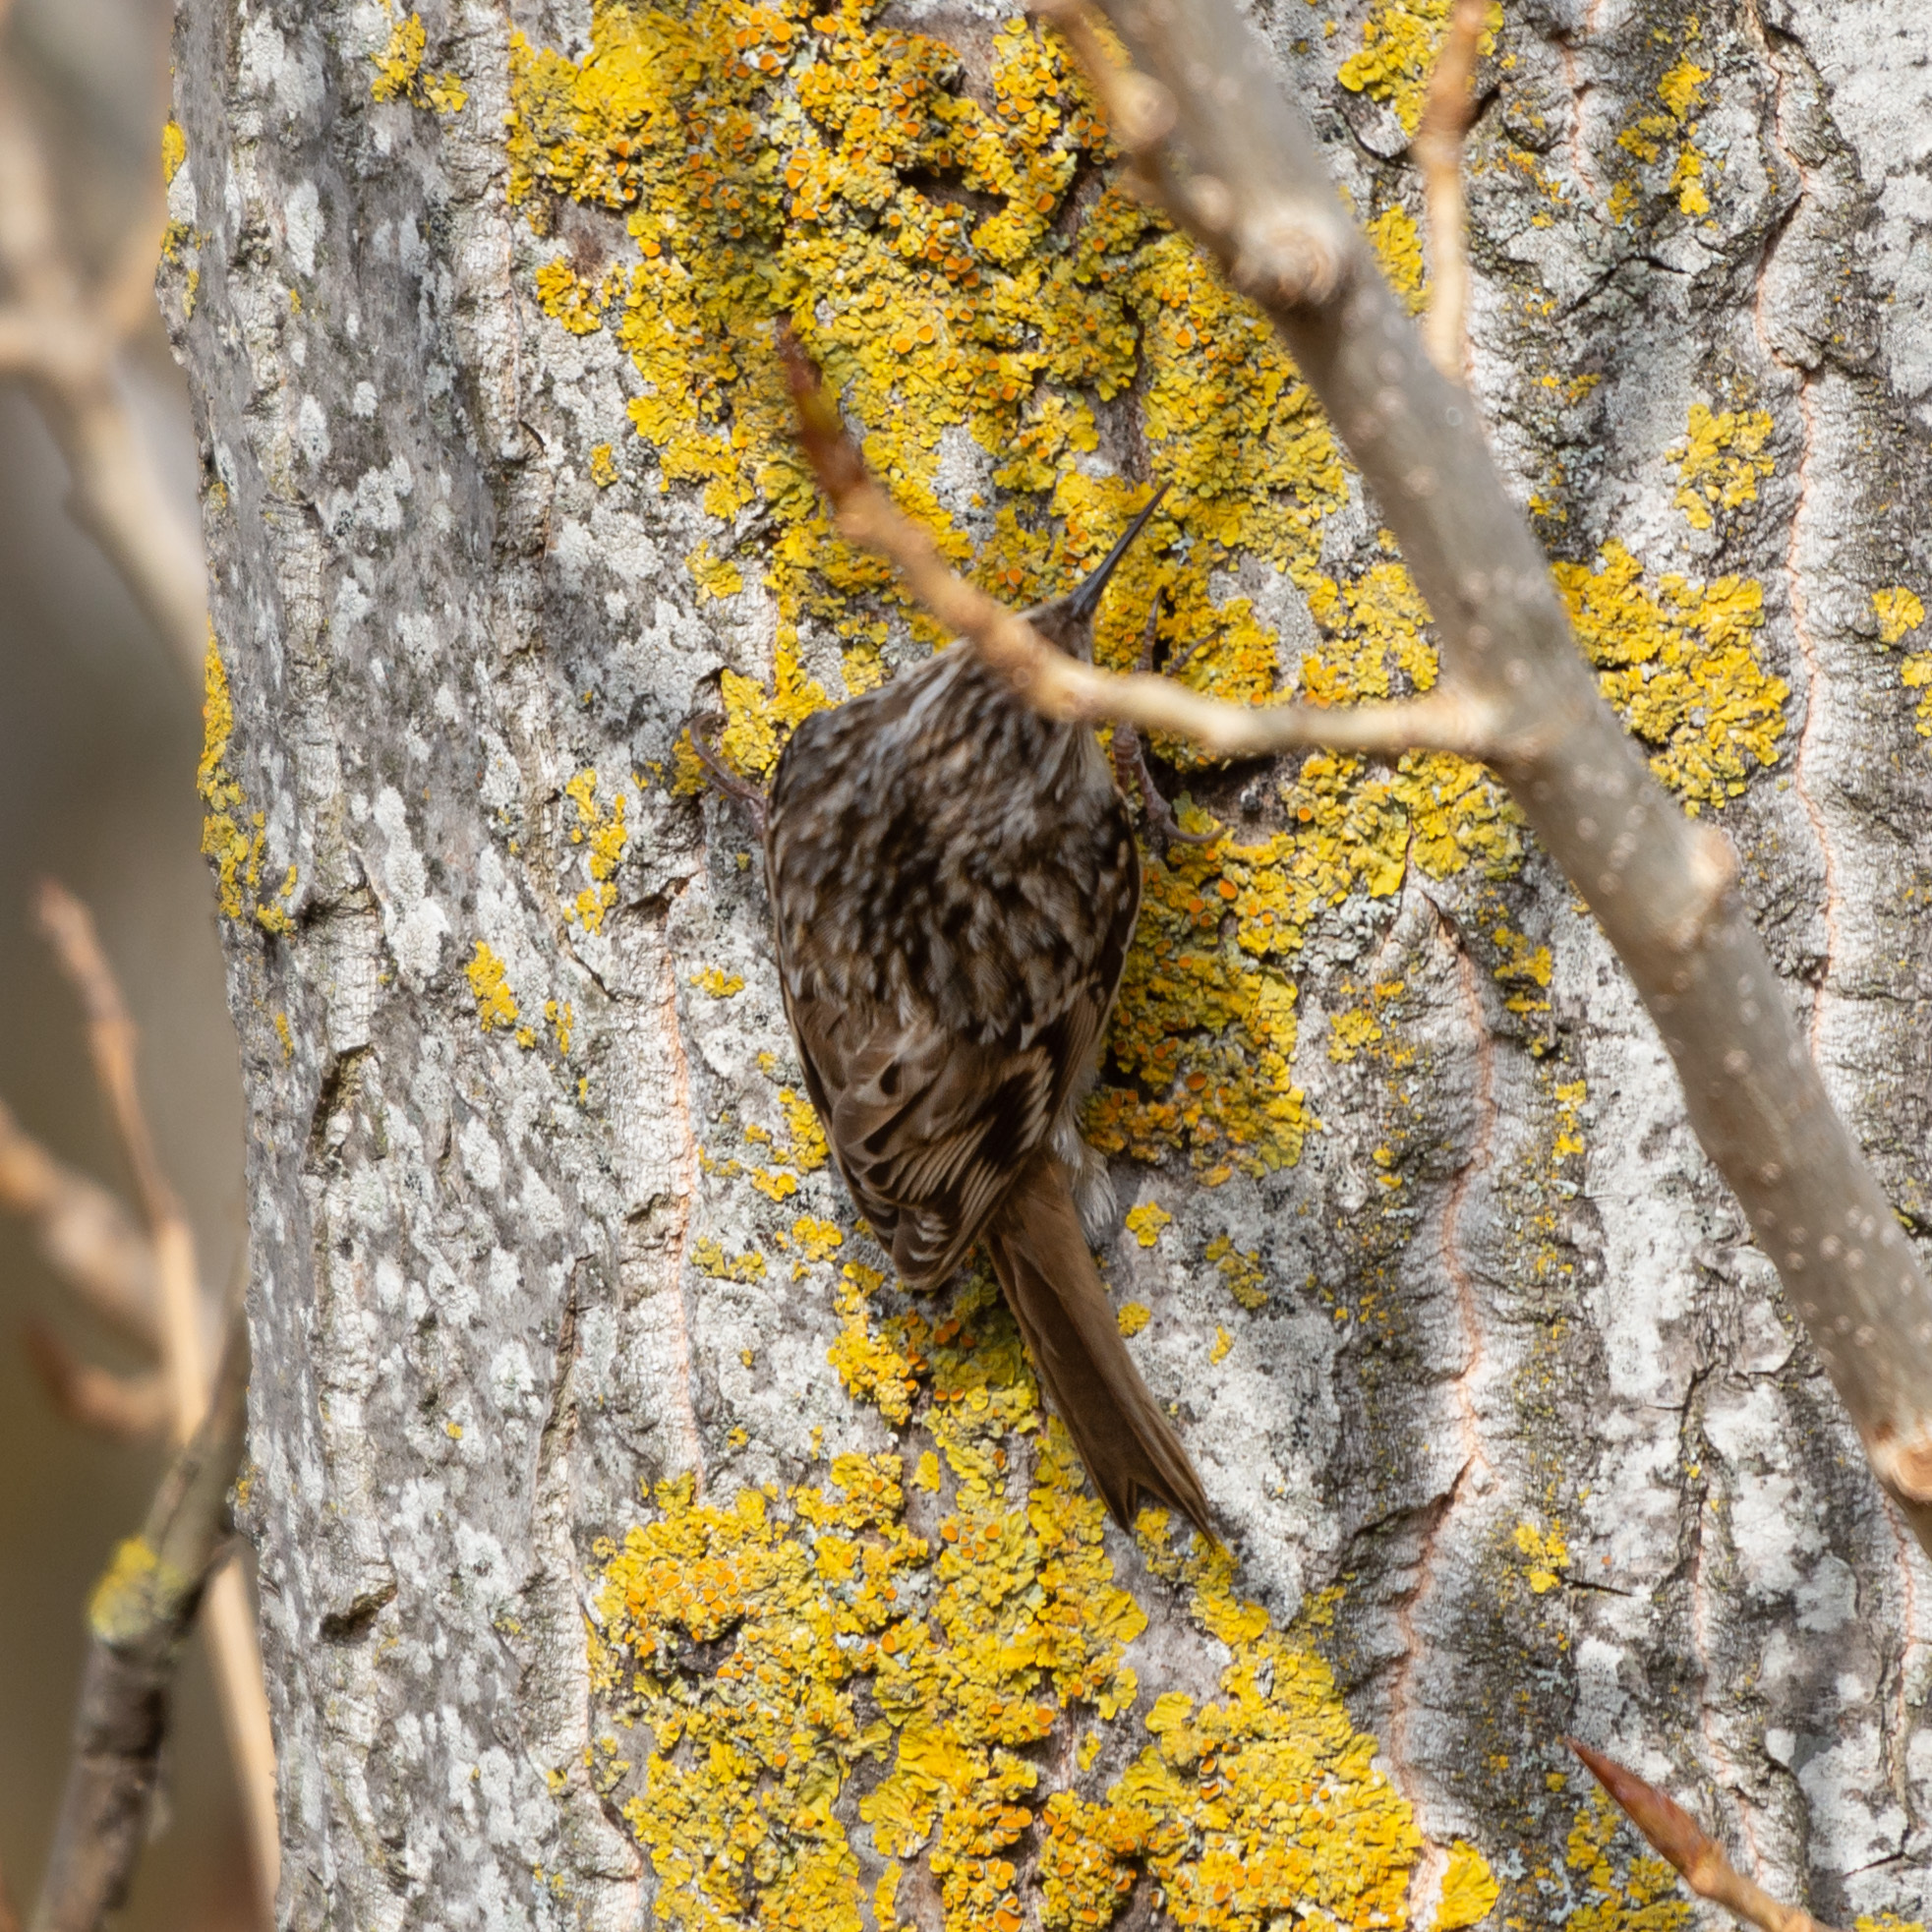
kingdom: Animalia
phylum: Chordata
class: Aves
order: Passeriformes
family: Certhiidae
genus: Certhia
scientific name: Certhia brachydactyla
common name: Short-toed treecreeper
